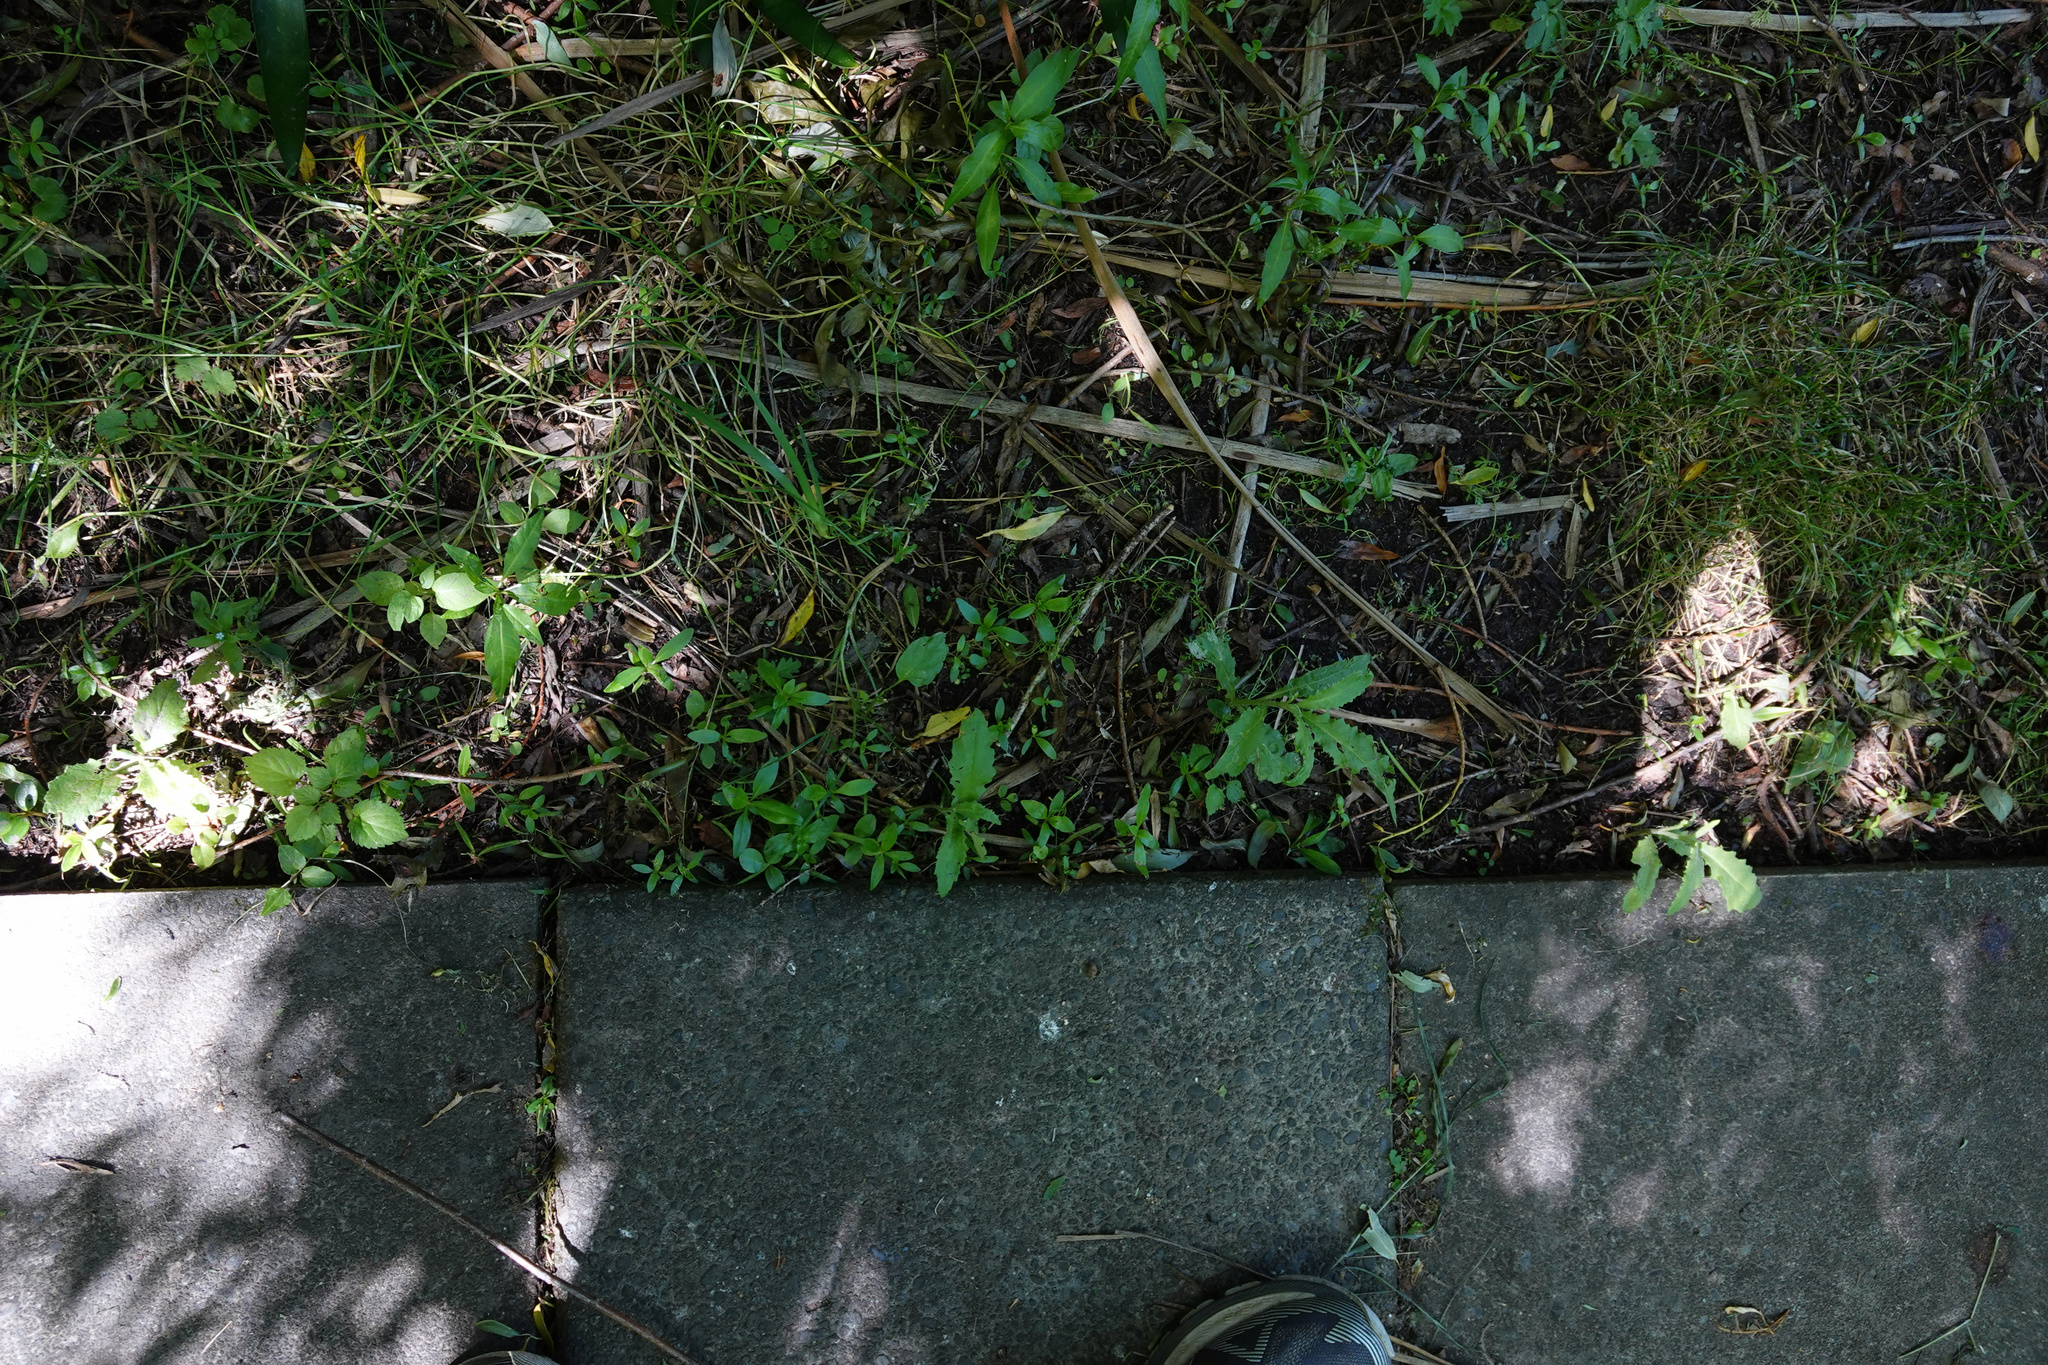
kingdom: Plantae
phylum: Tracheophyta
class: Magnoliopsida
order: Asterales
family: Asteraceae
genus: Senecio
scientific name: Senecio minimus
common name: Toothed fireweed
